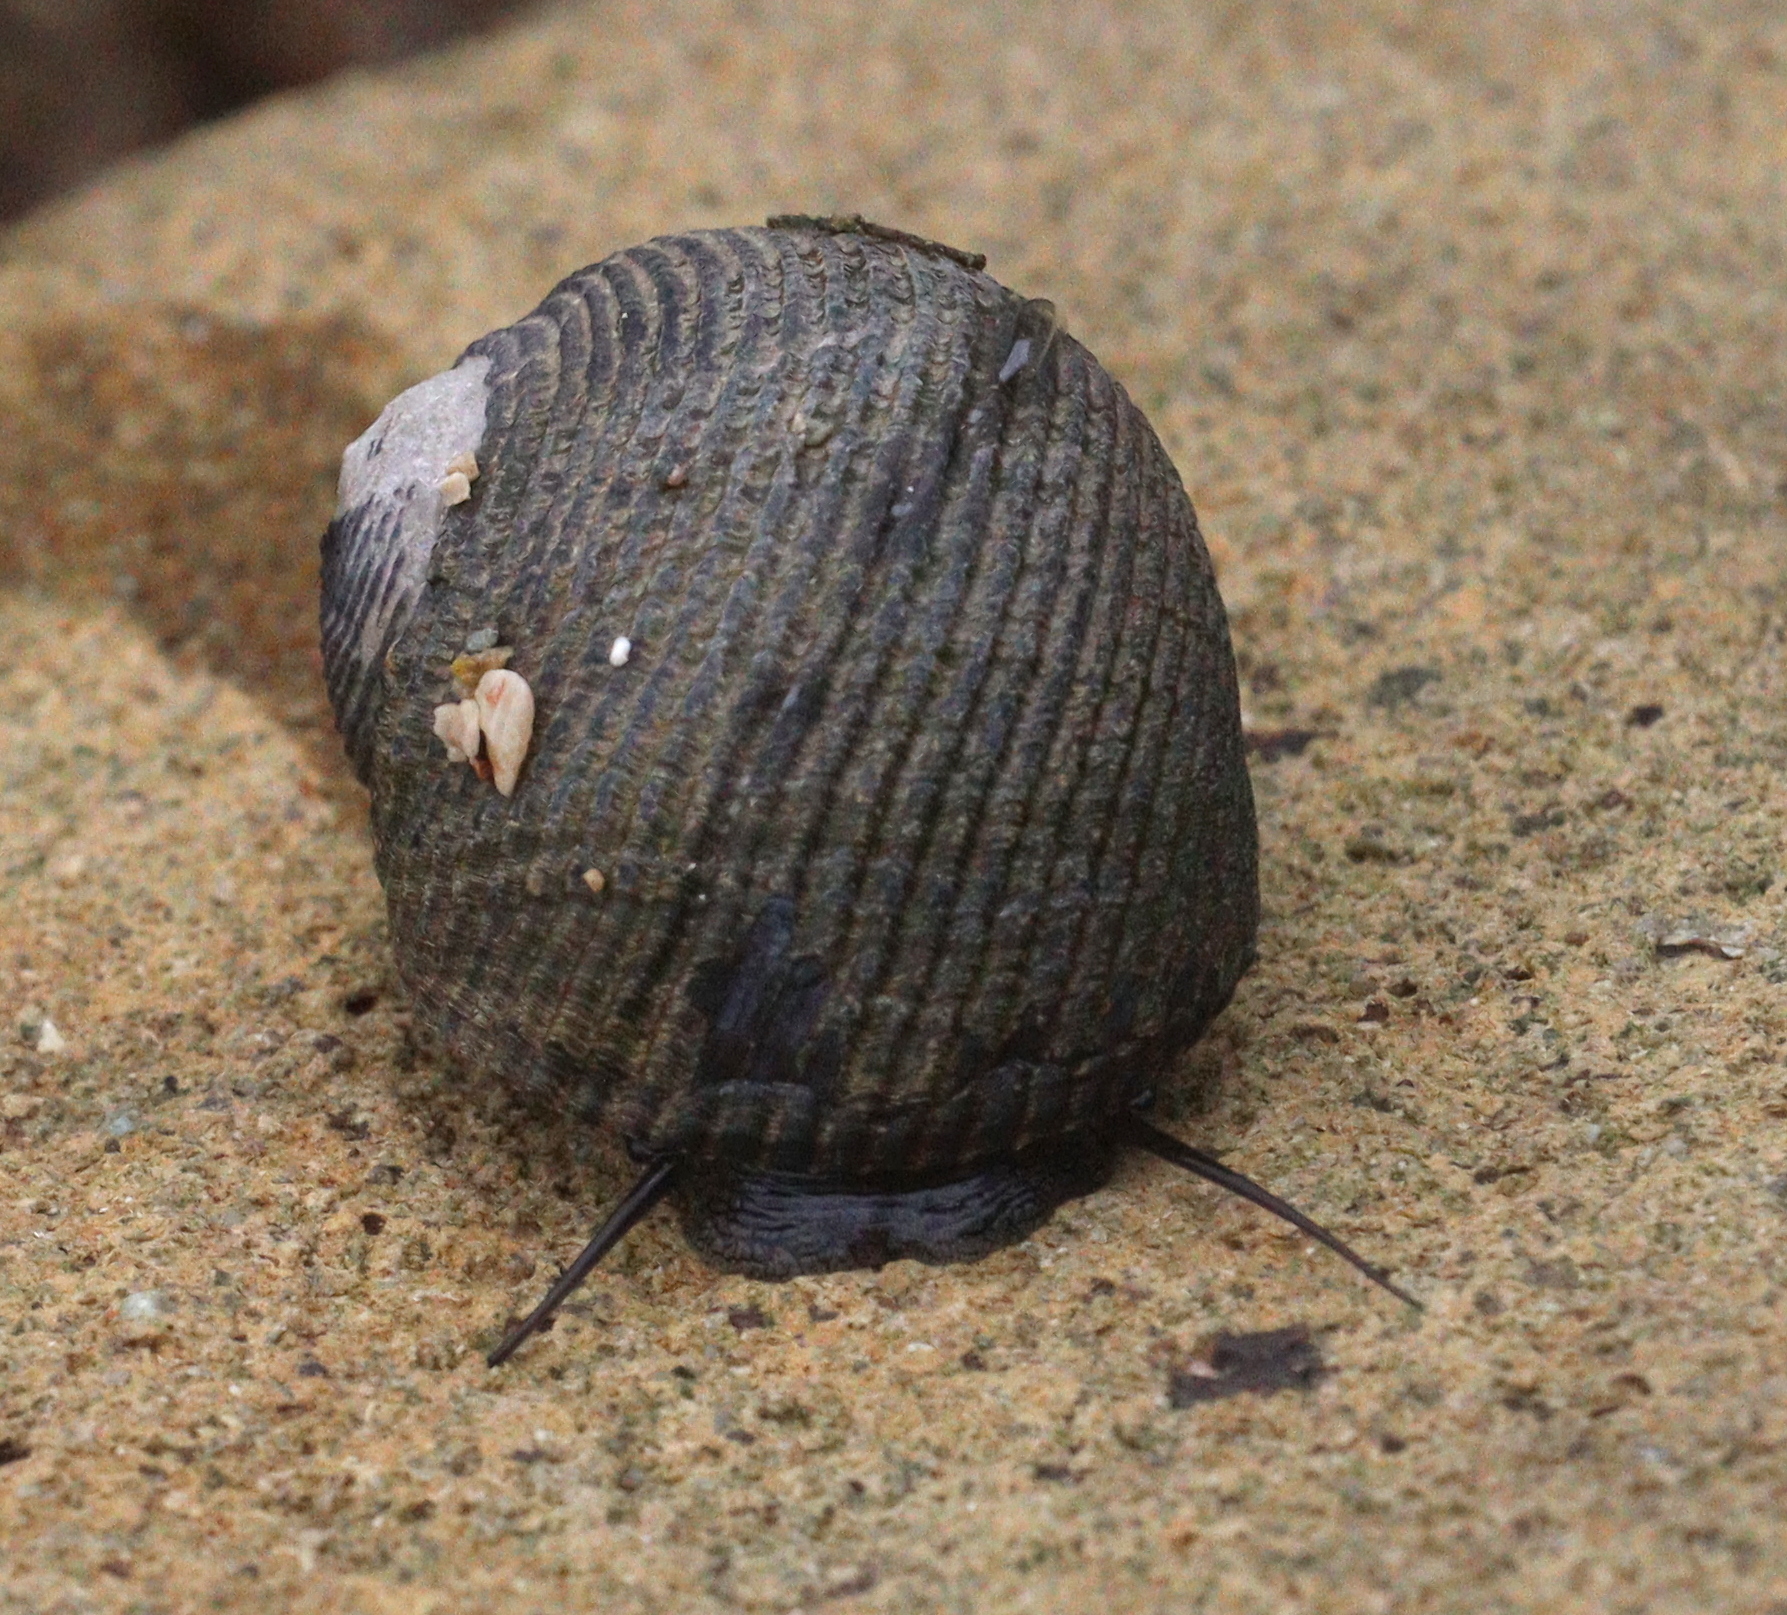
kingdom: Animalia
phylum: Mollusca
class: Gastropoda
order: Cycloneritida
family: Neritidae
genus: Nerita
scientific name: Nerita scabricosta
